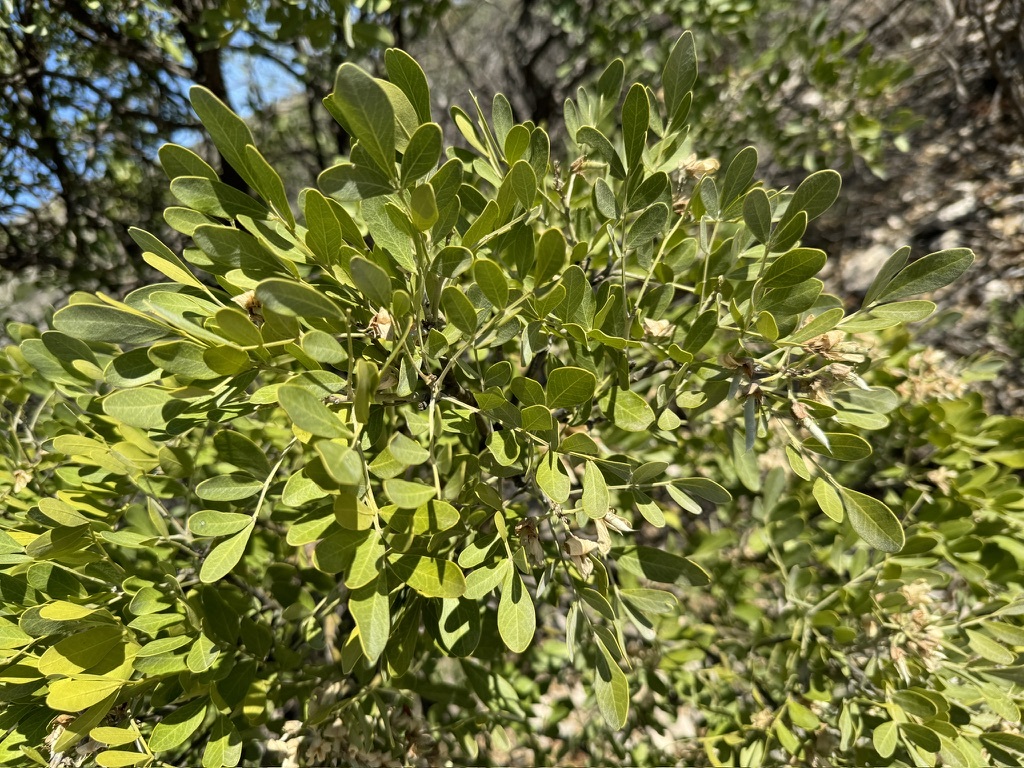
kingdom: Plantae
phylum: Tracheophyta
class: Magnoliopsida
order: Fabales
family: Fabaceae
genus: Dermatophyllum
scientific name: Dermatophyllum secundiflorum
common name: Texas-mountain-laurel
